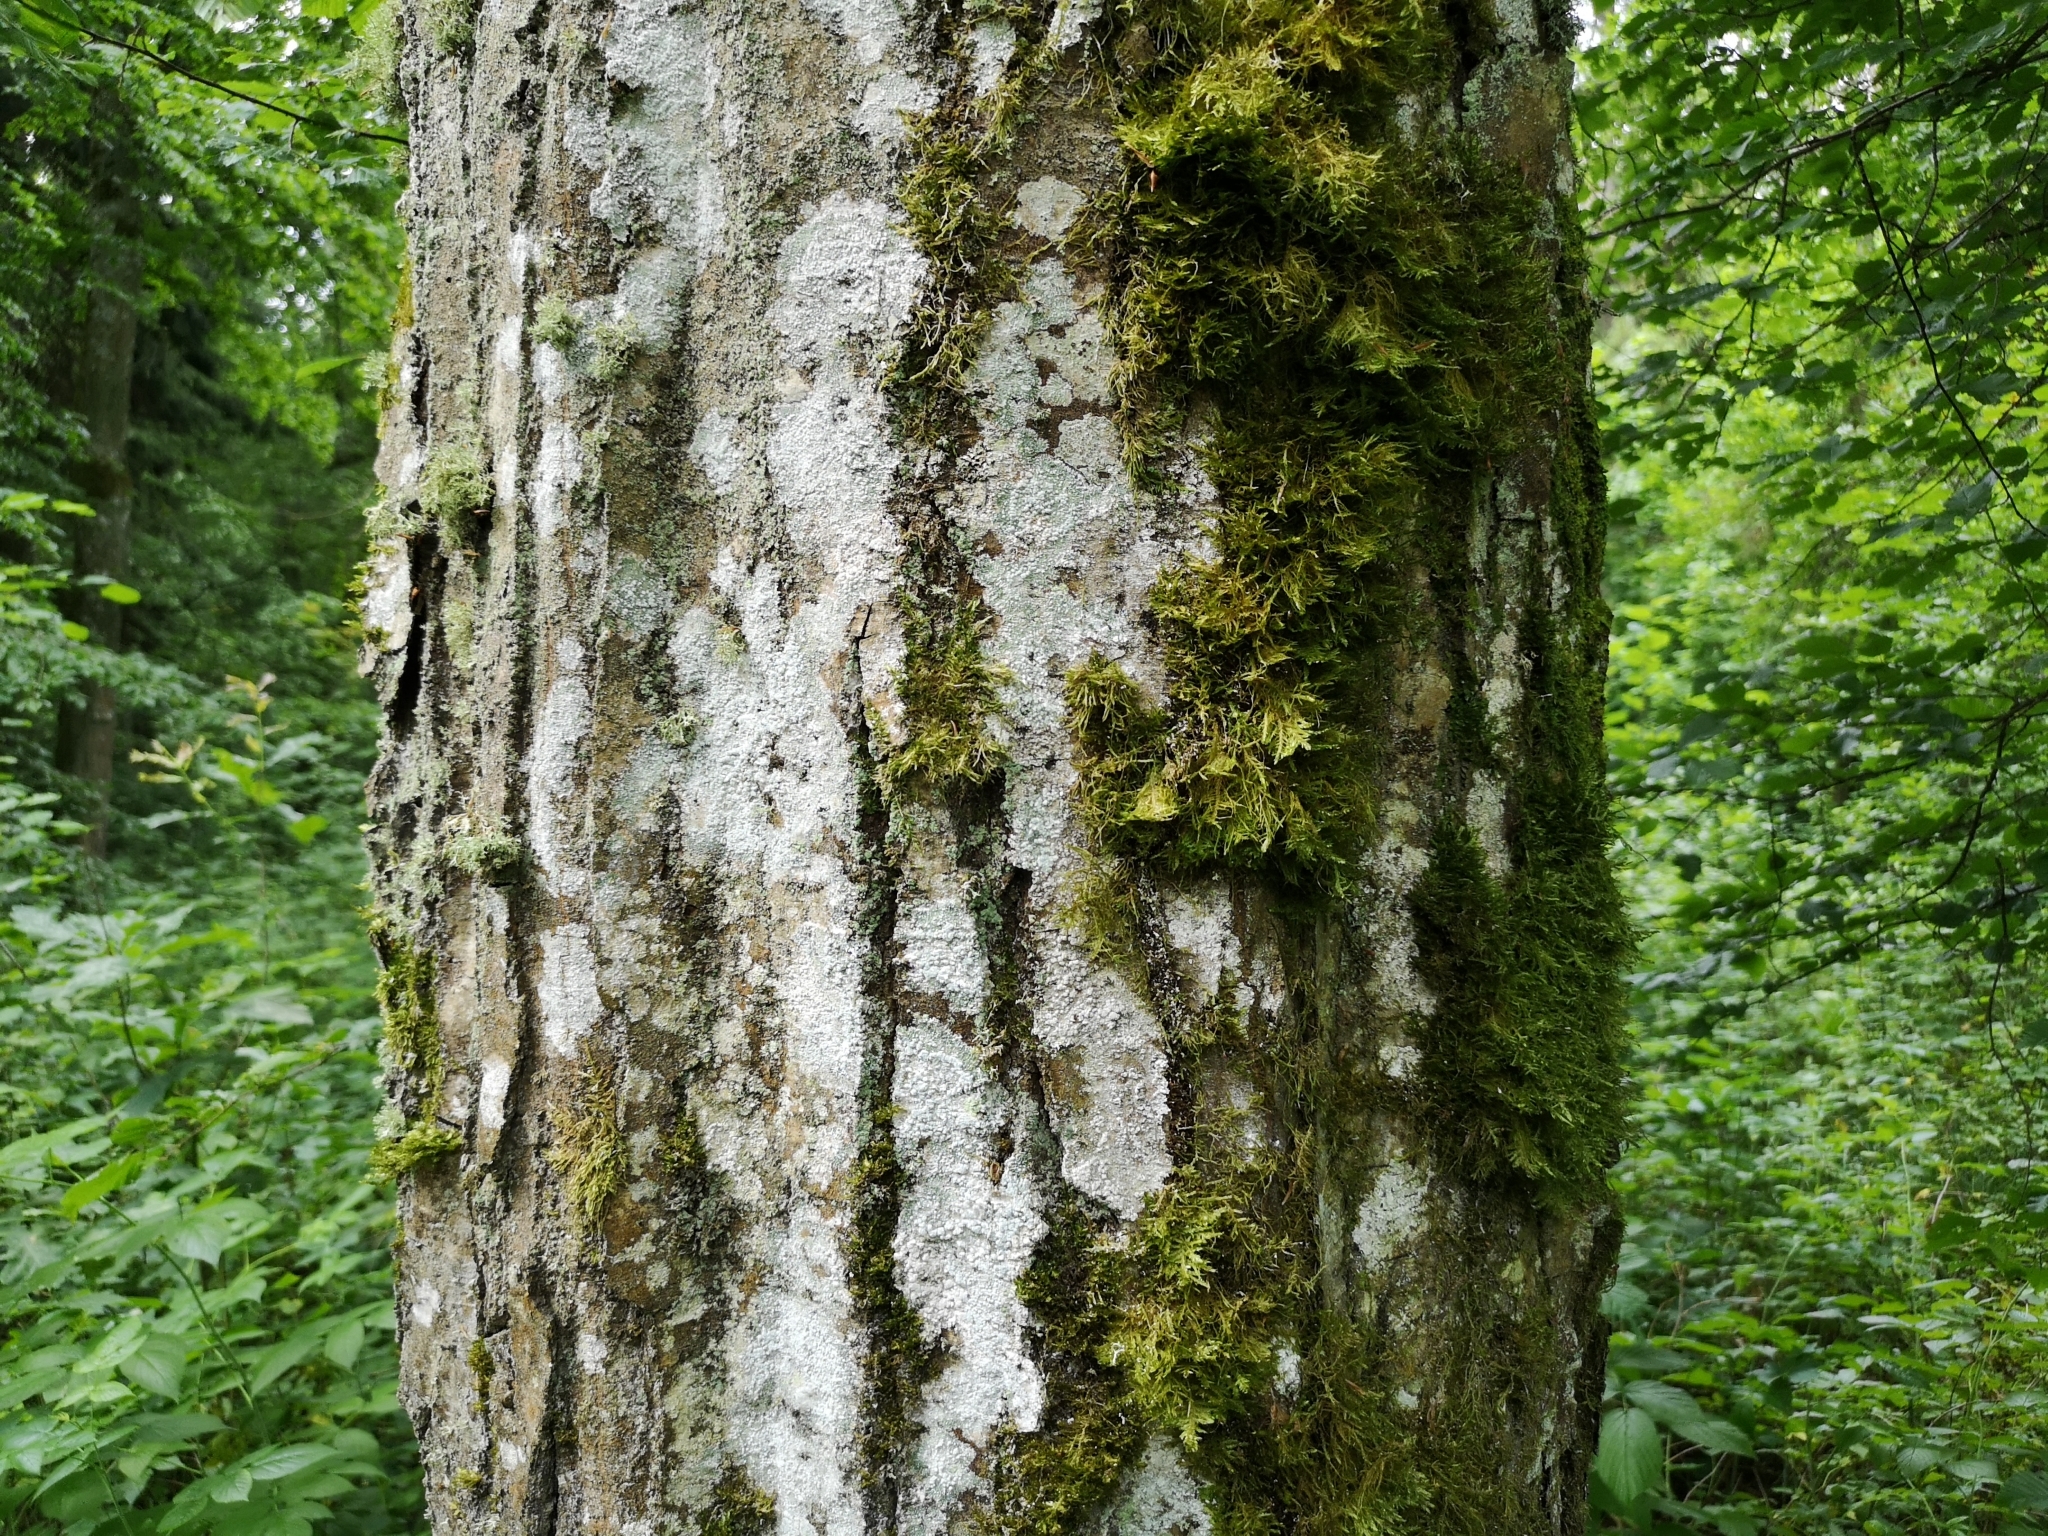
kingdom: Plantae
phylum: Tracheophyta
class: Magnoliopsida
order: Fagales
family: Betulaceae
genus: Carpinus
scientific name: Carpinus betulus
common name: Hornbeam
